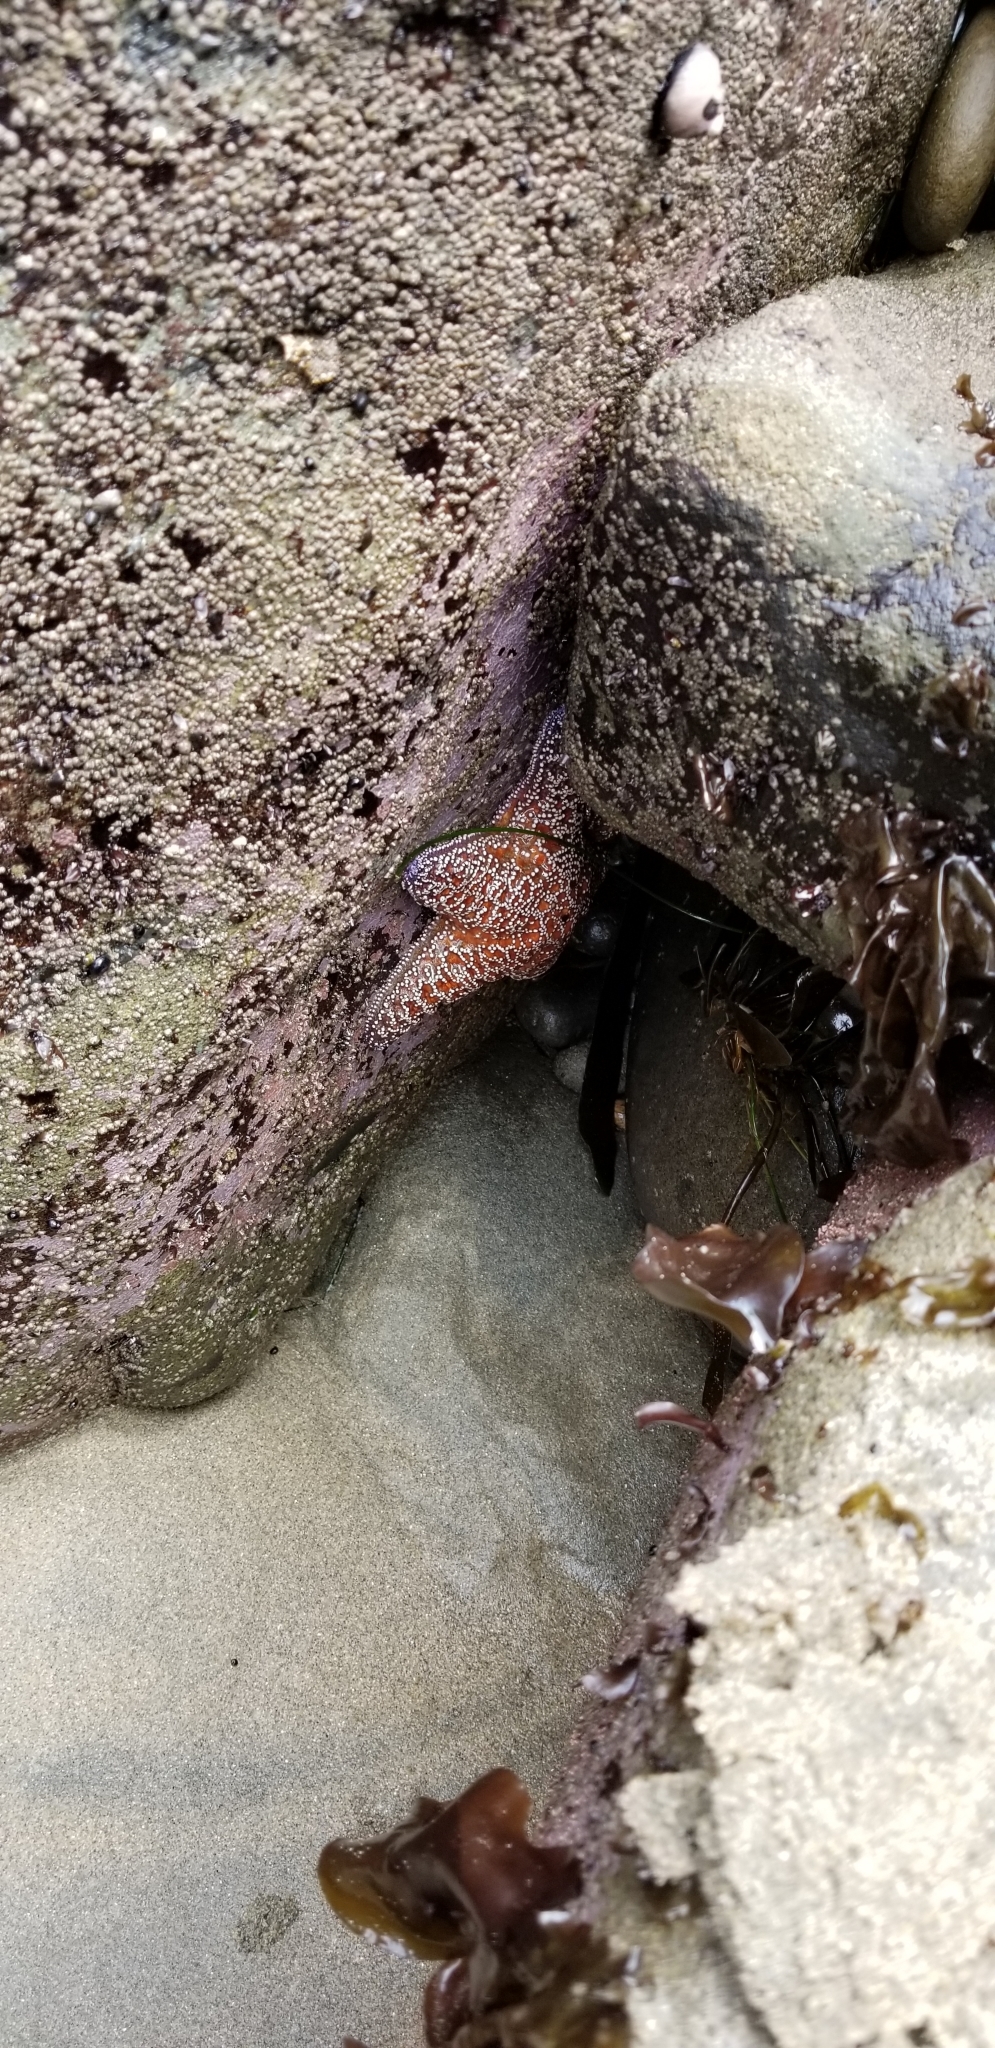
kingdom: Animalia
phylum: Echinodermata
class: Asteroidea
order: Forcipulatida
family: Asteriidae
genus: Pisaster
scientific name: Pisaster ochraceus
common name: Ochre stars
